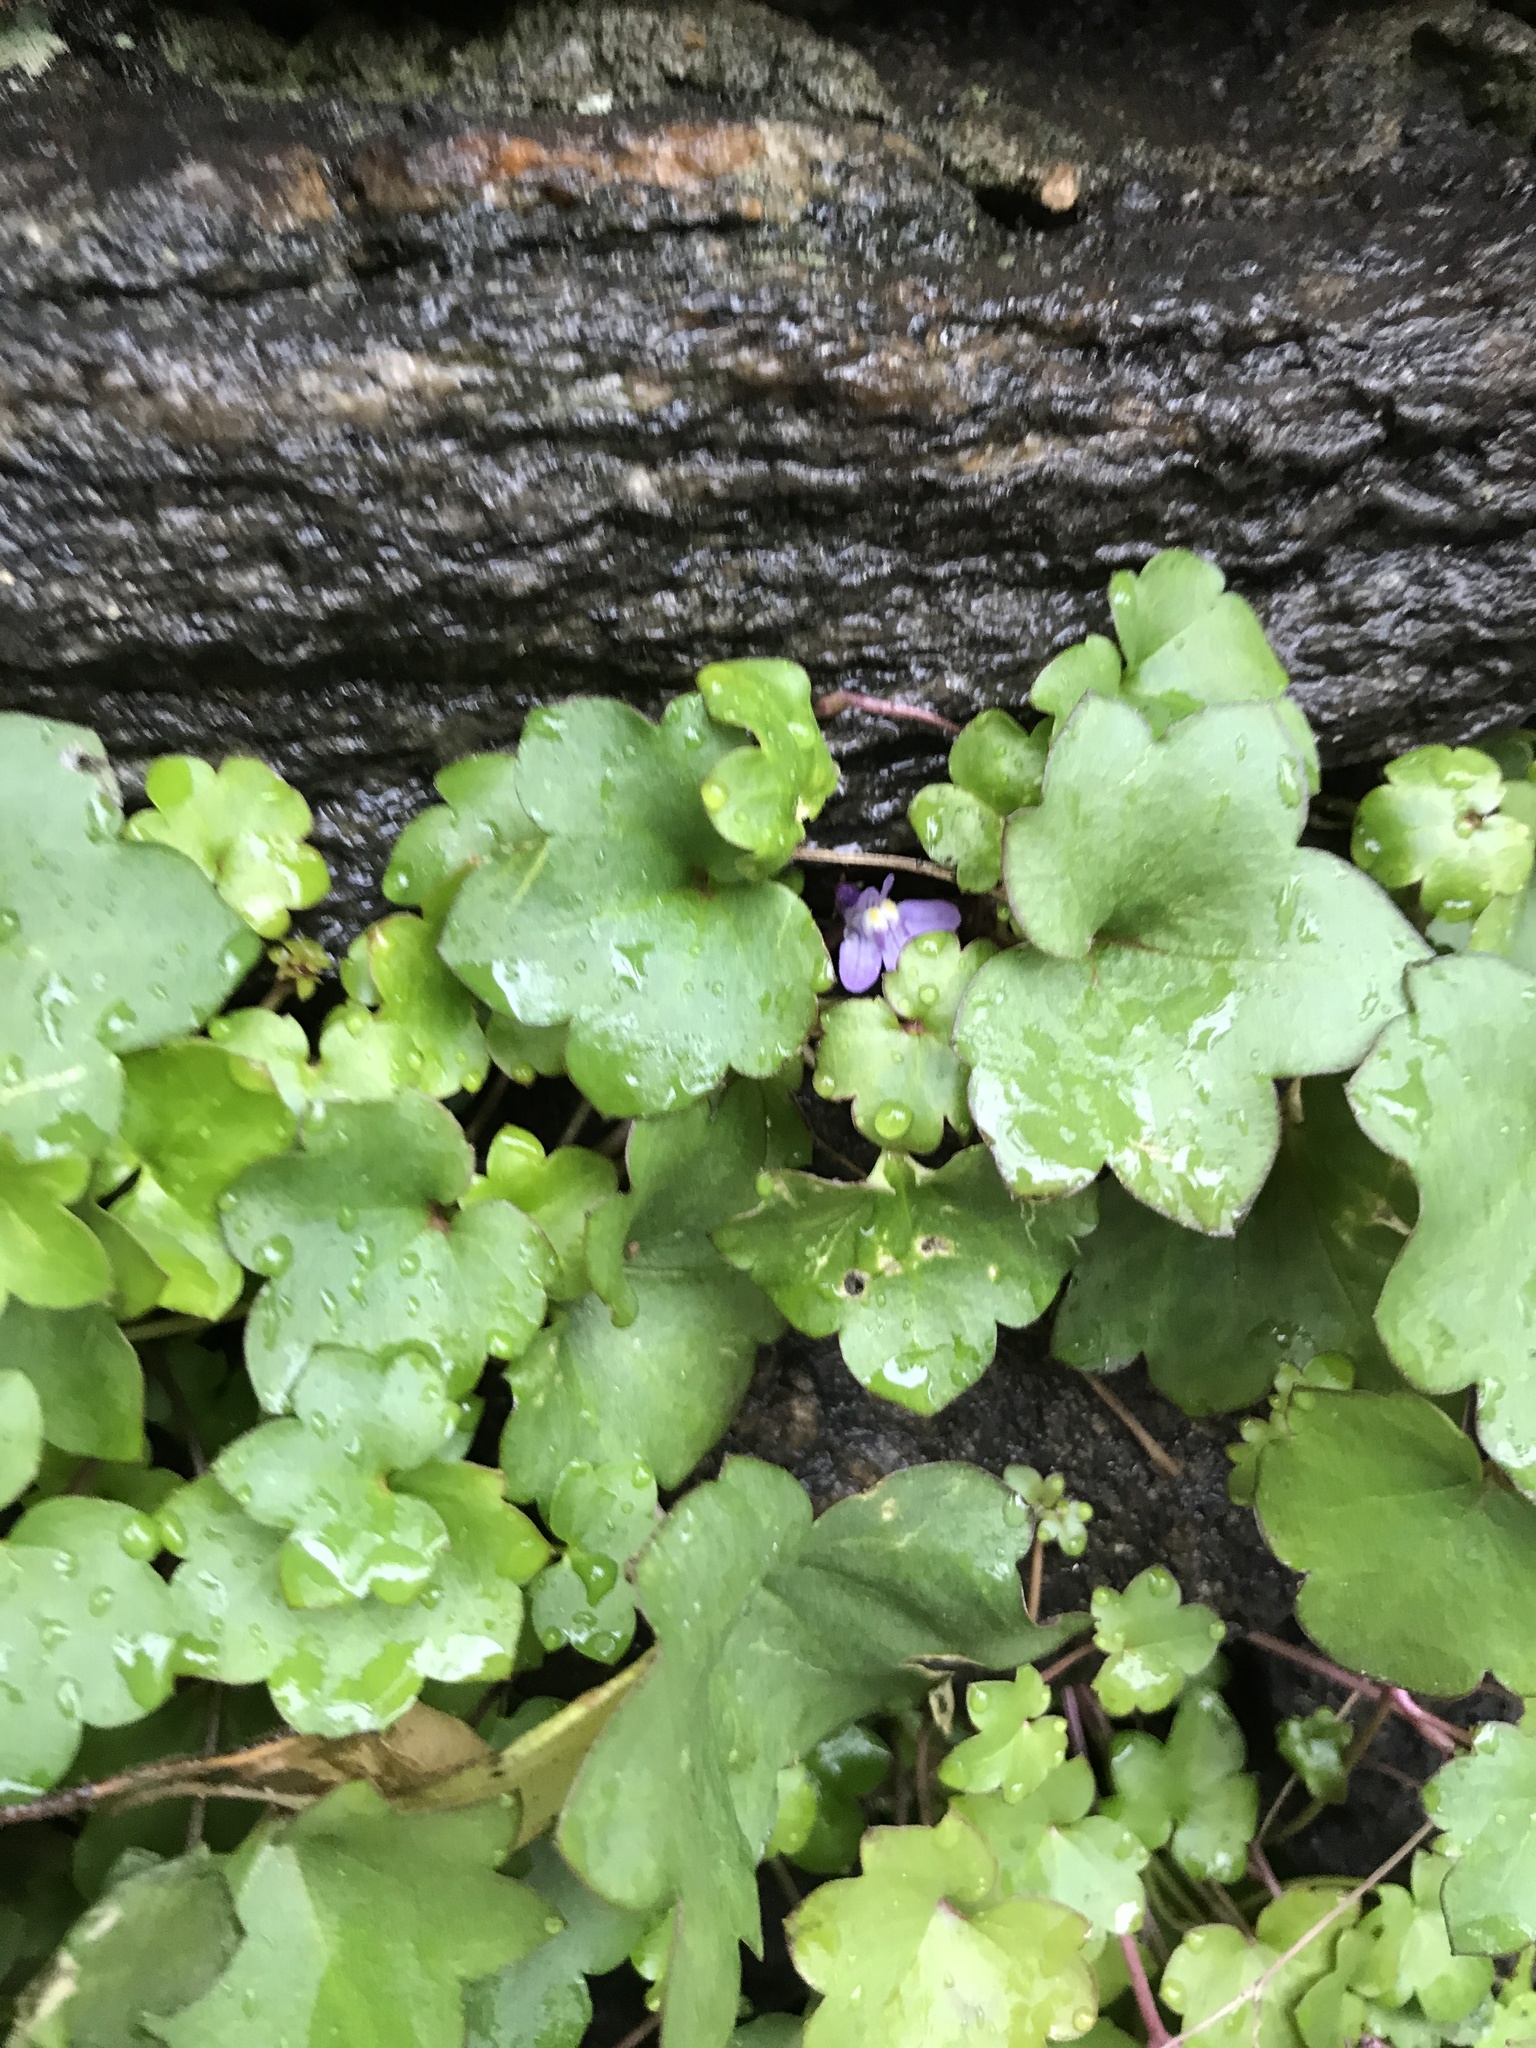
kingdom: Plantae
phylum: Tracheophyta
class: Magnoliopsida
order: Lamiales
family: Plantaginaceae
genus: Cymbalaria
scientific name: Cymbalaria muralis
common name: Ivy-leaved toadflax
